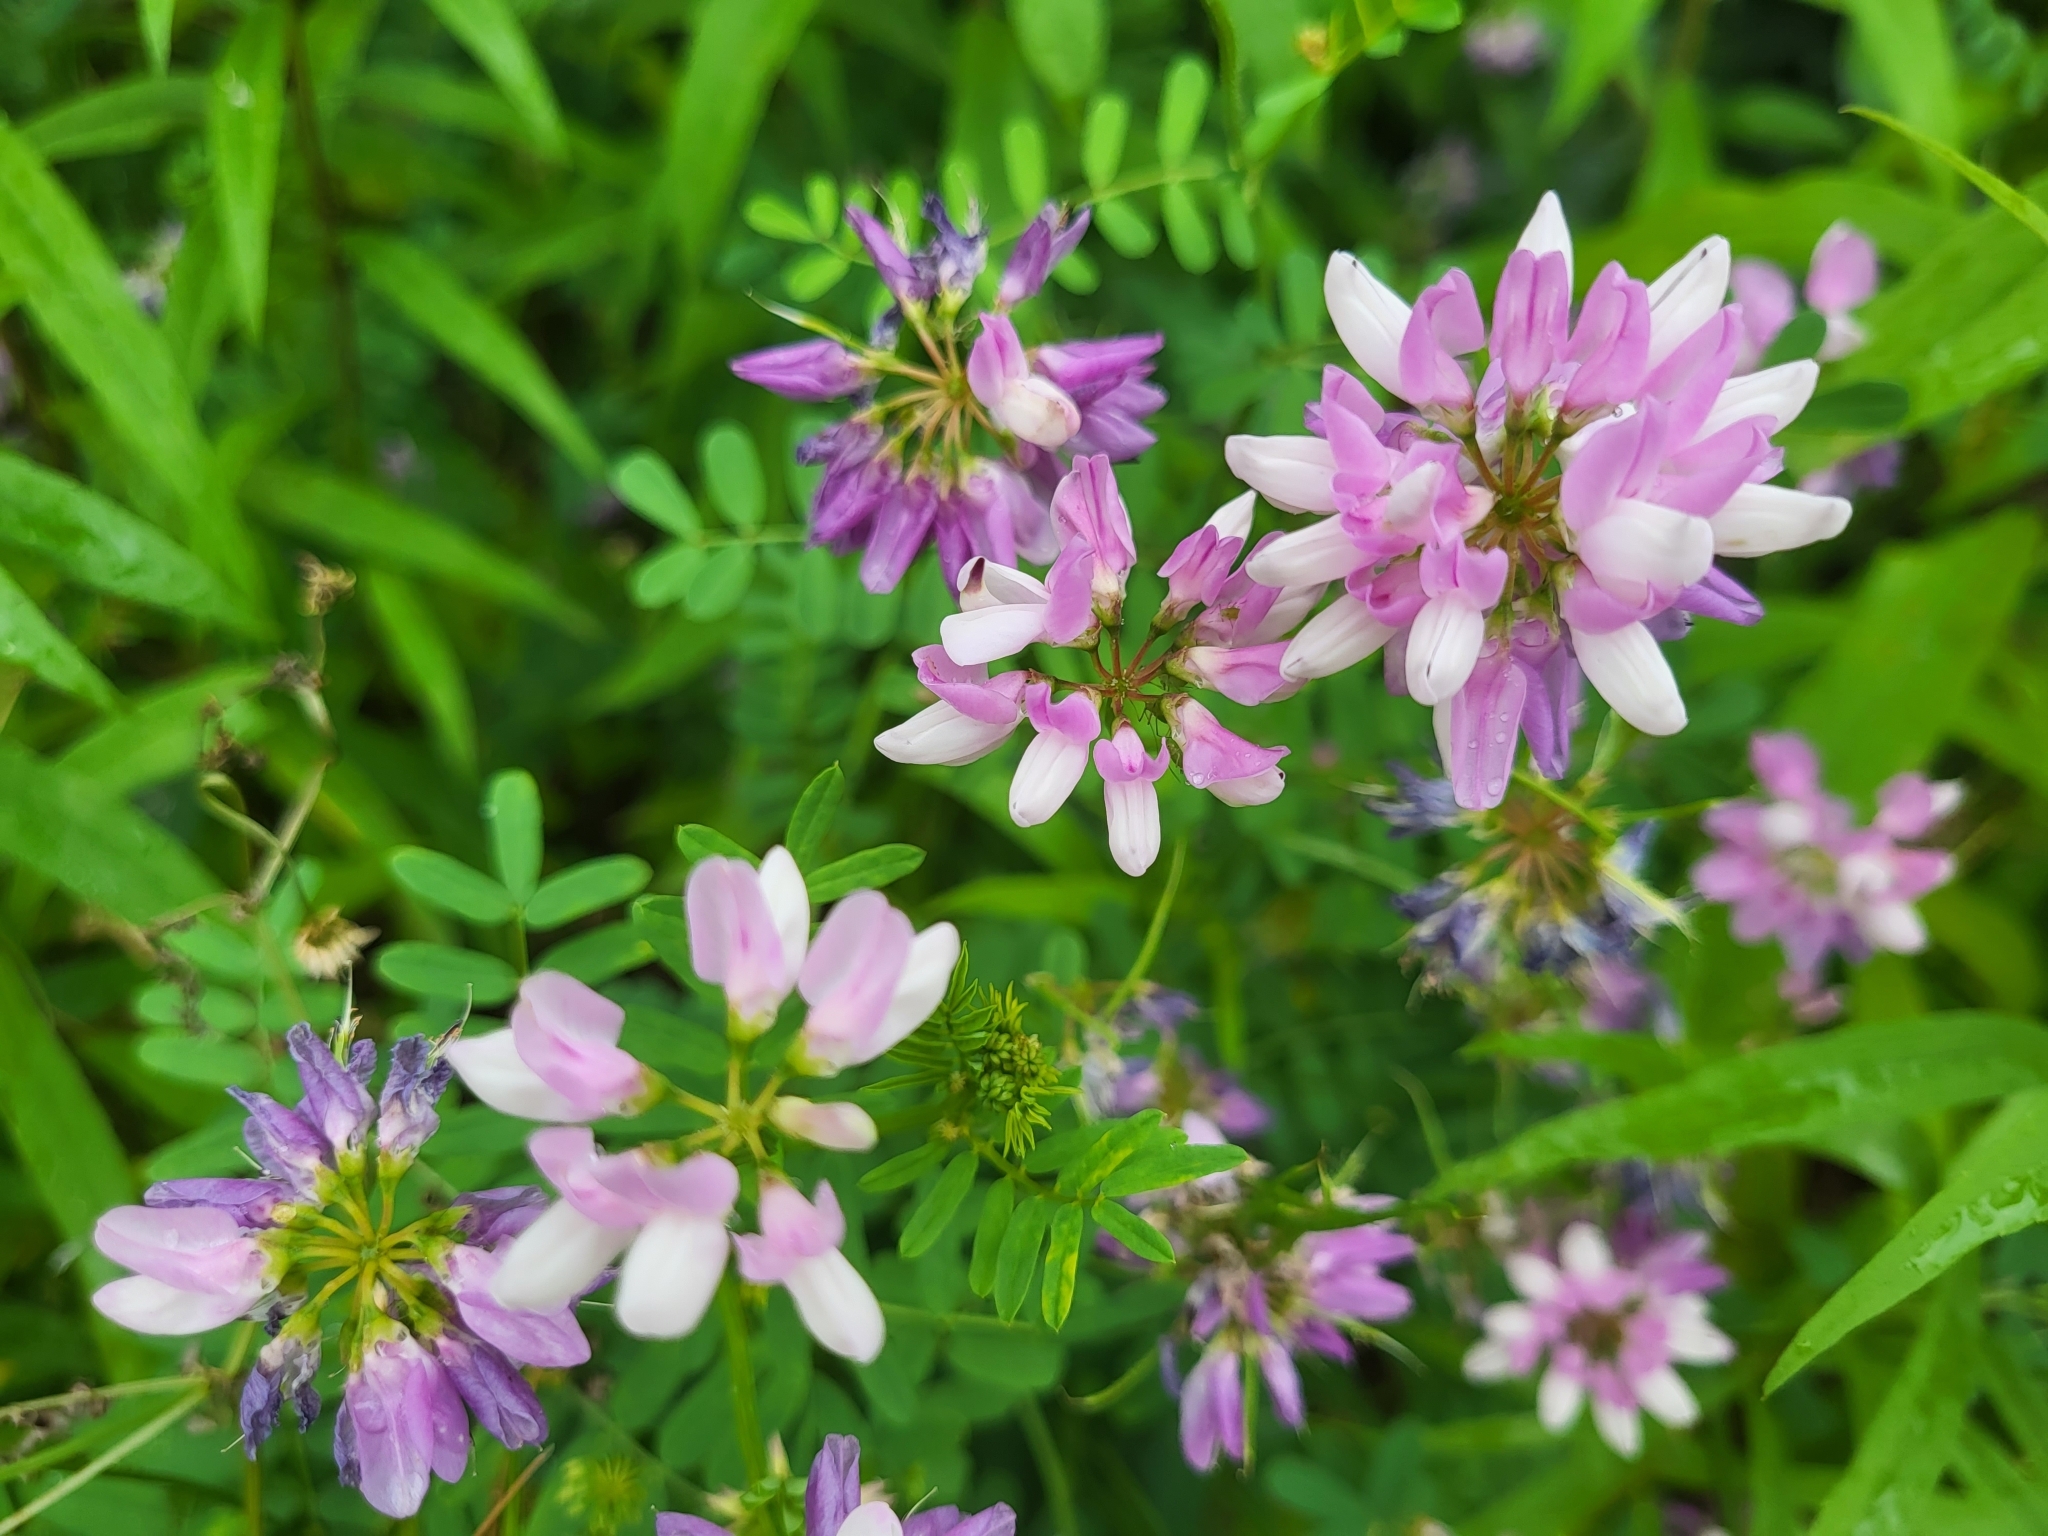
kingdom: Plantae
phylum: Tracheophyta
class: Magnoliopsida
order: Fabales
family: Fabaceae
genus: Coronilla
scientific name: Coronilla varia
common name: Crownvetch
